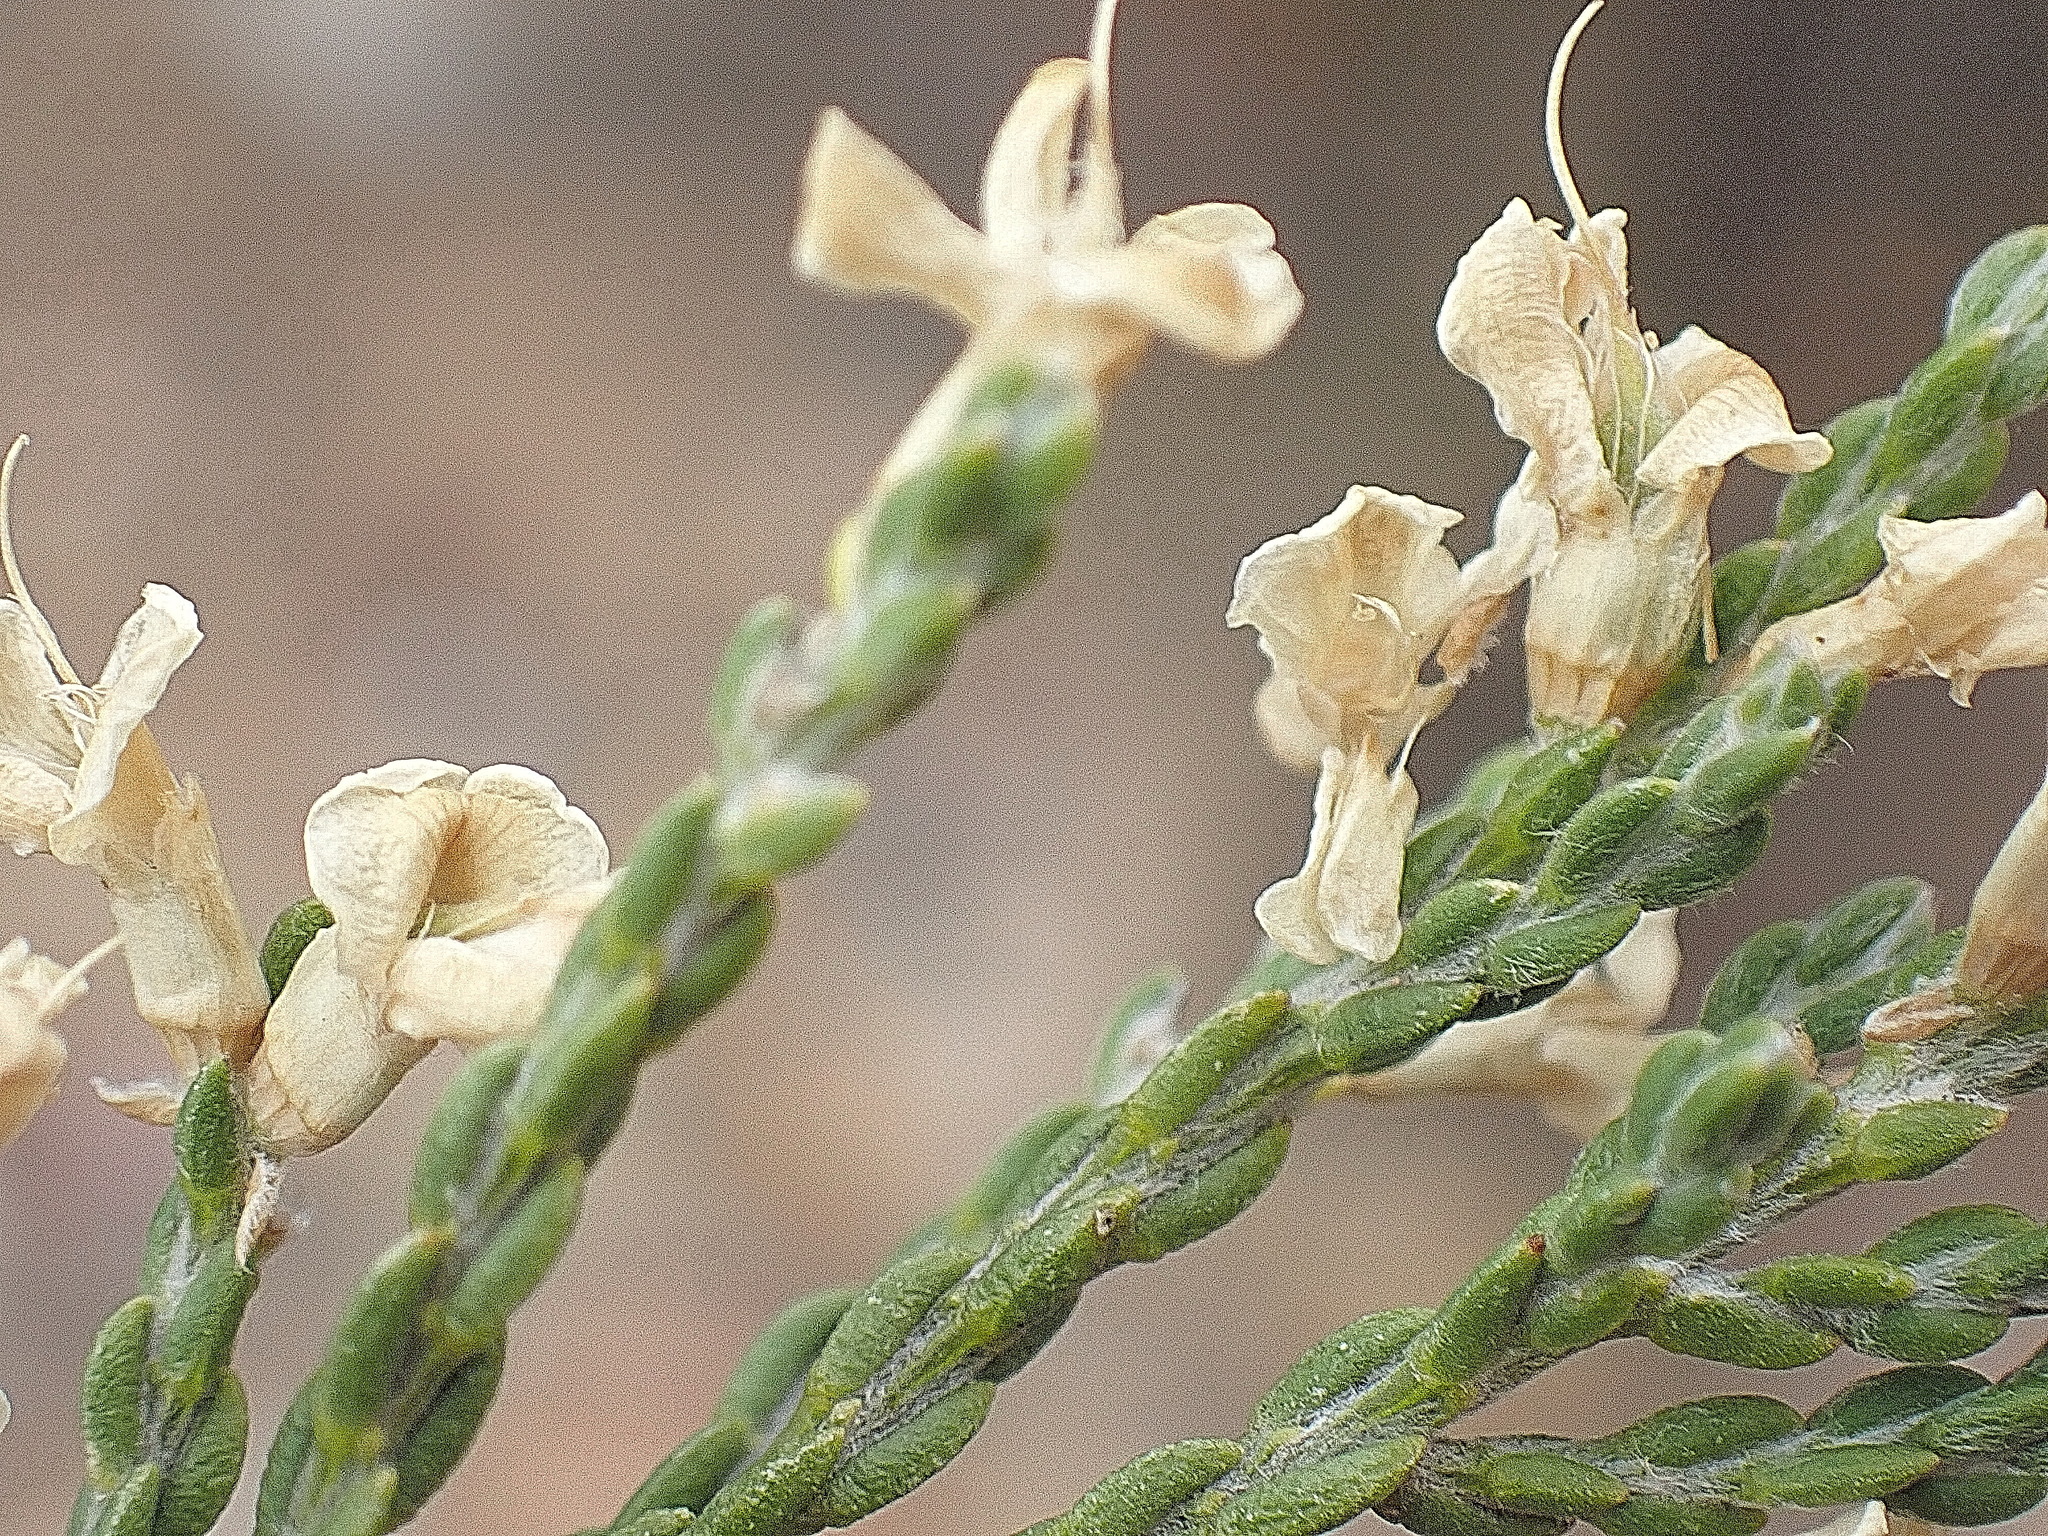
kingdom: Plantae
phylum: Tracheophyta
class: Magnoliopsida
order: Fabales
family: Fabaceae
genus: Amphithalea
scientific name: Amphithalea vlokii
